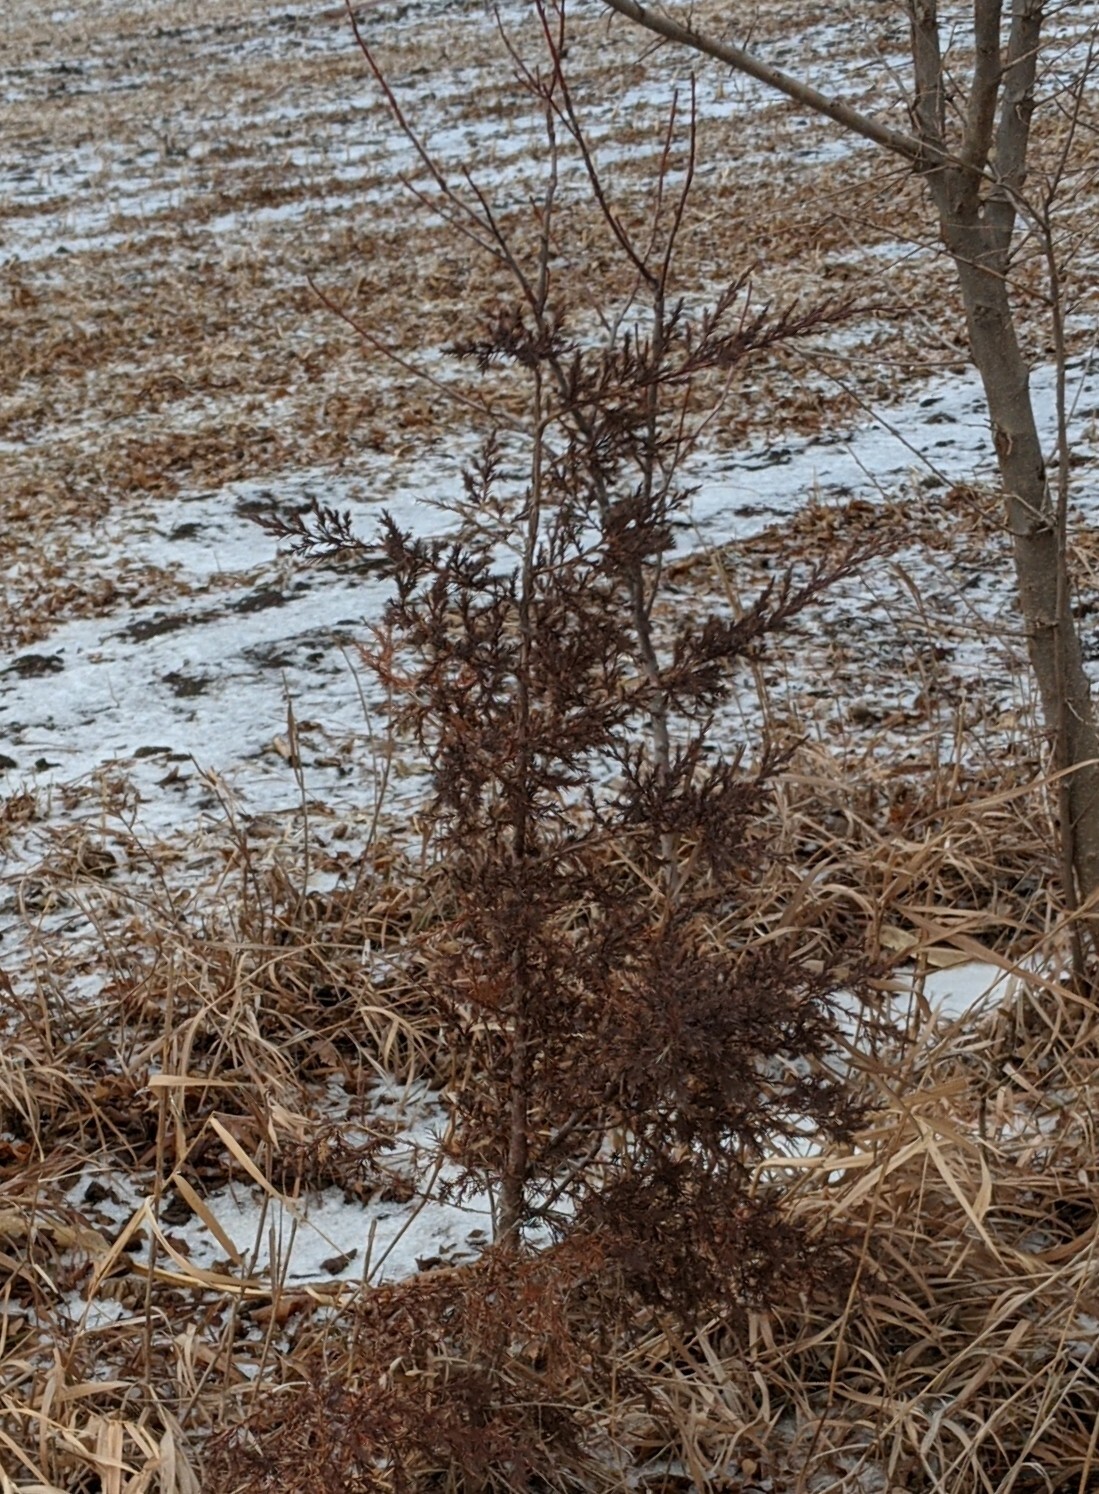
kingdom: Plantae
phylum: Tracheophyta
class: Pinopsida
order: Pinales
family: Cupressaceae
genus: Juniperus
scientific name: Juniperus virginiana
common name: Red juniper
